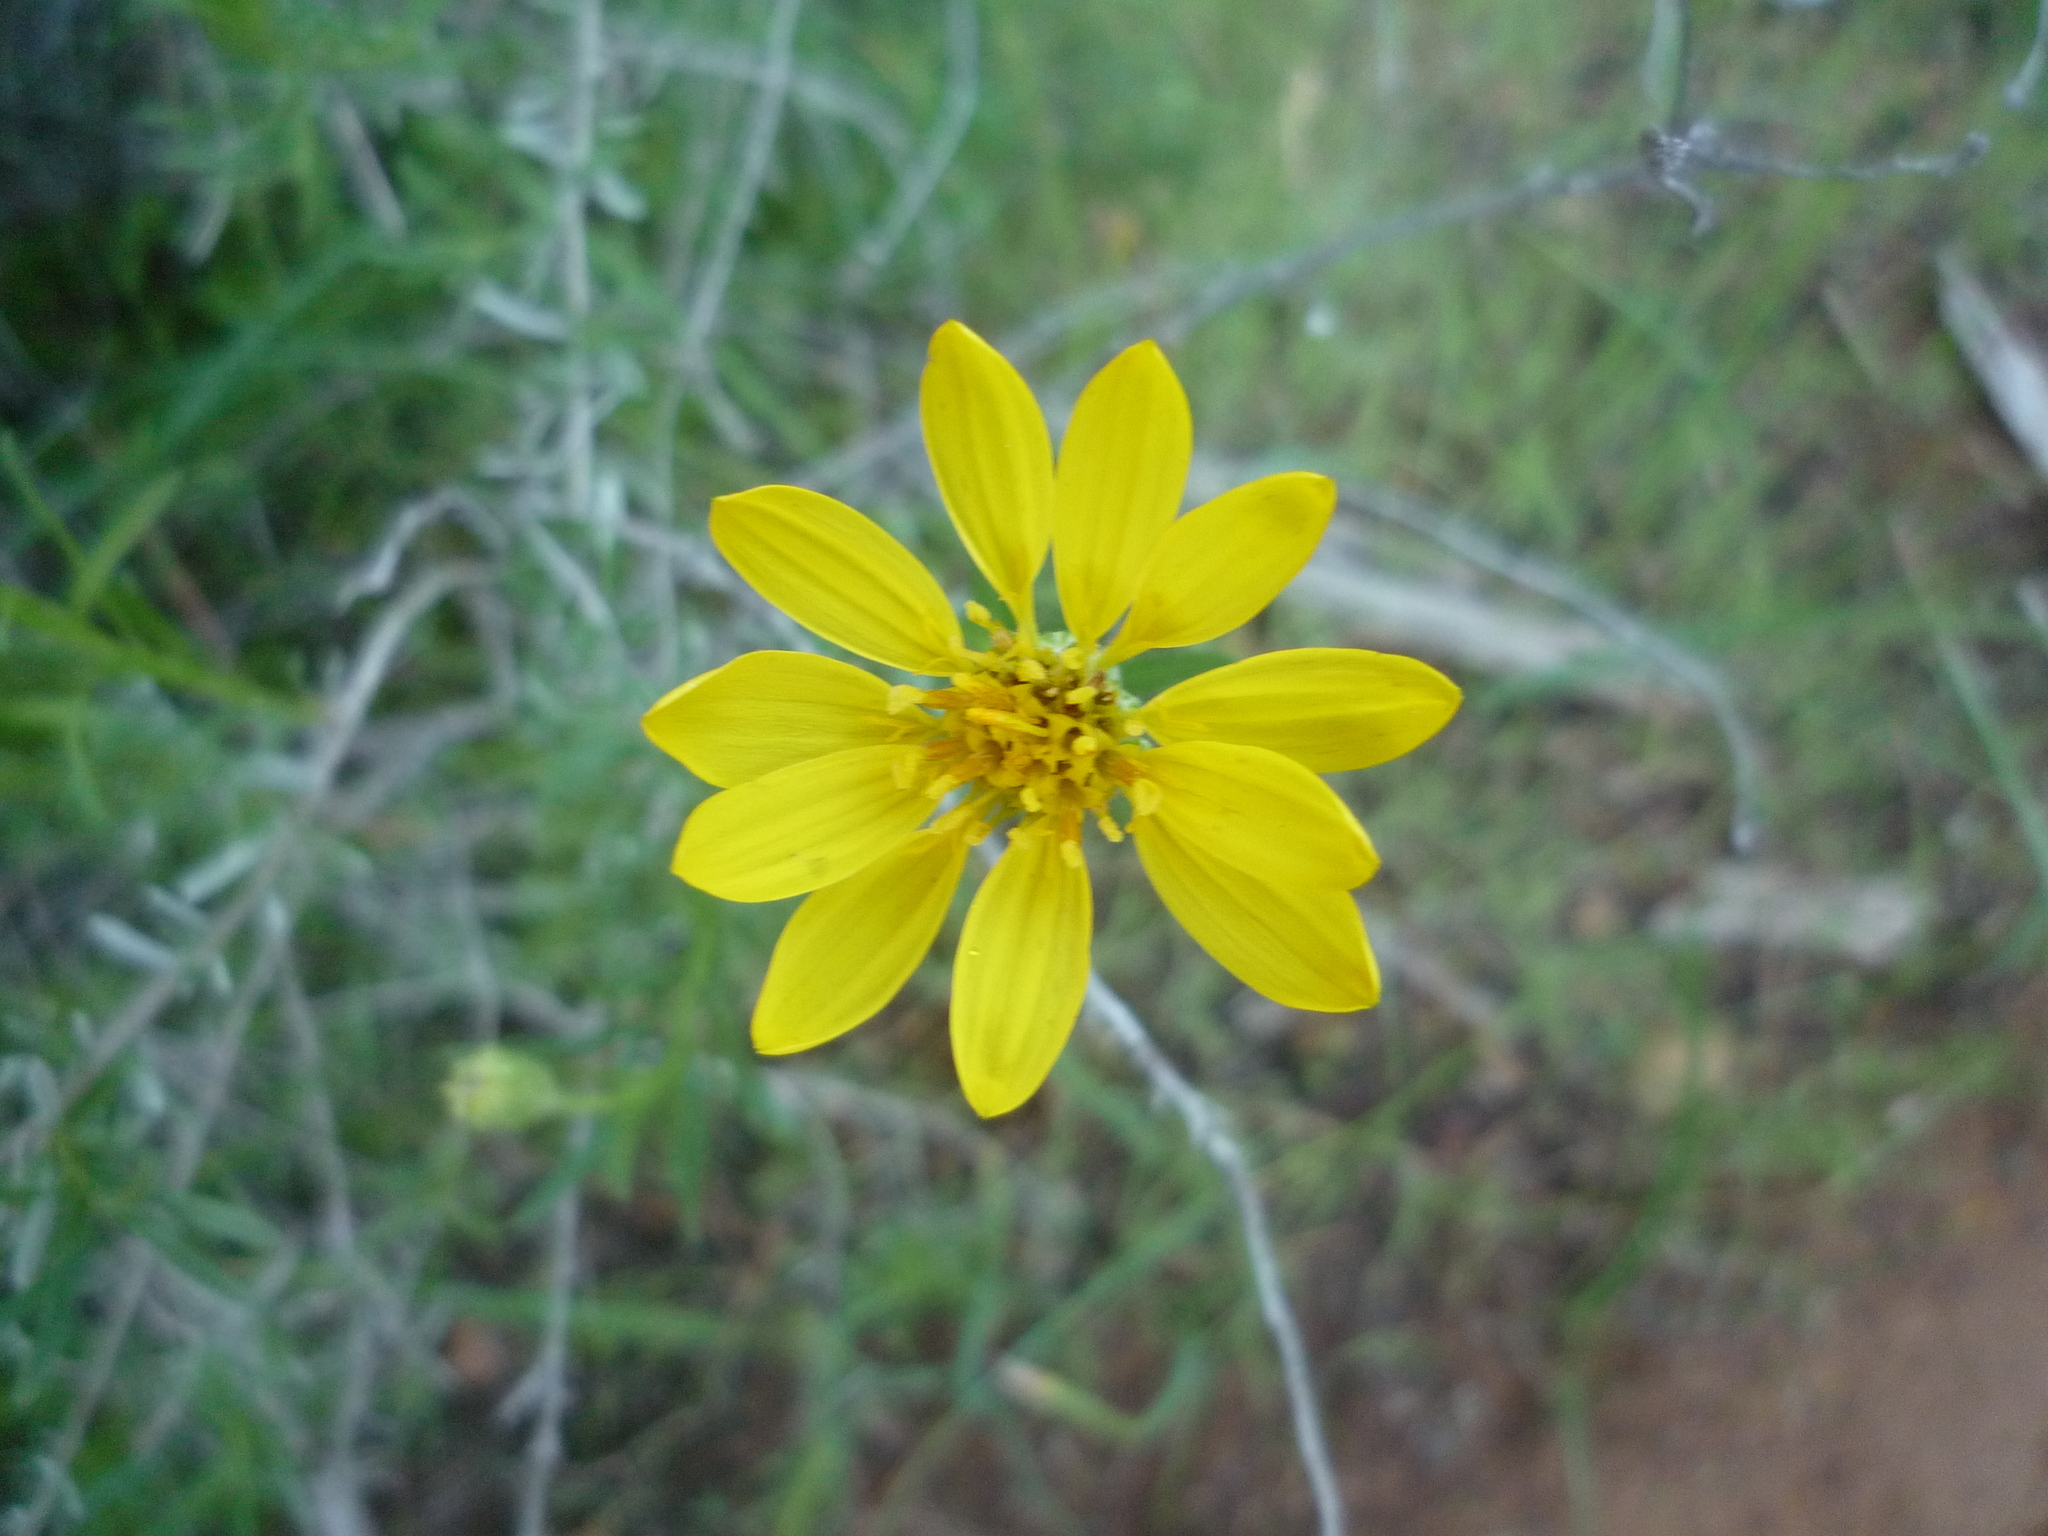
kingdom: Plantae
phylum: Tracheophyta
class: Magnoliopsida
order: Ericales
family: Polemoniaceae
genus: Linanthus
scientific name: Linanthus dichotomus
